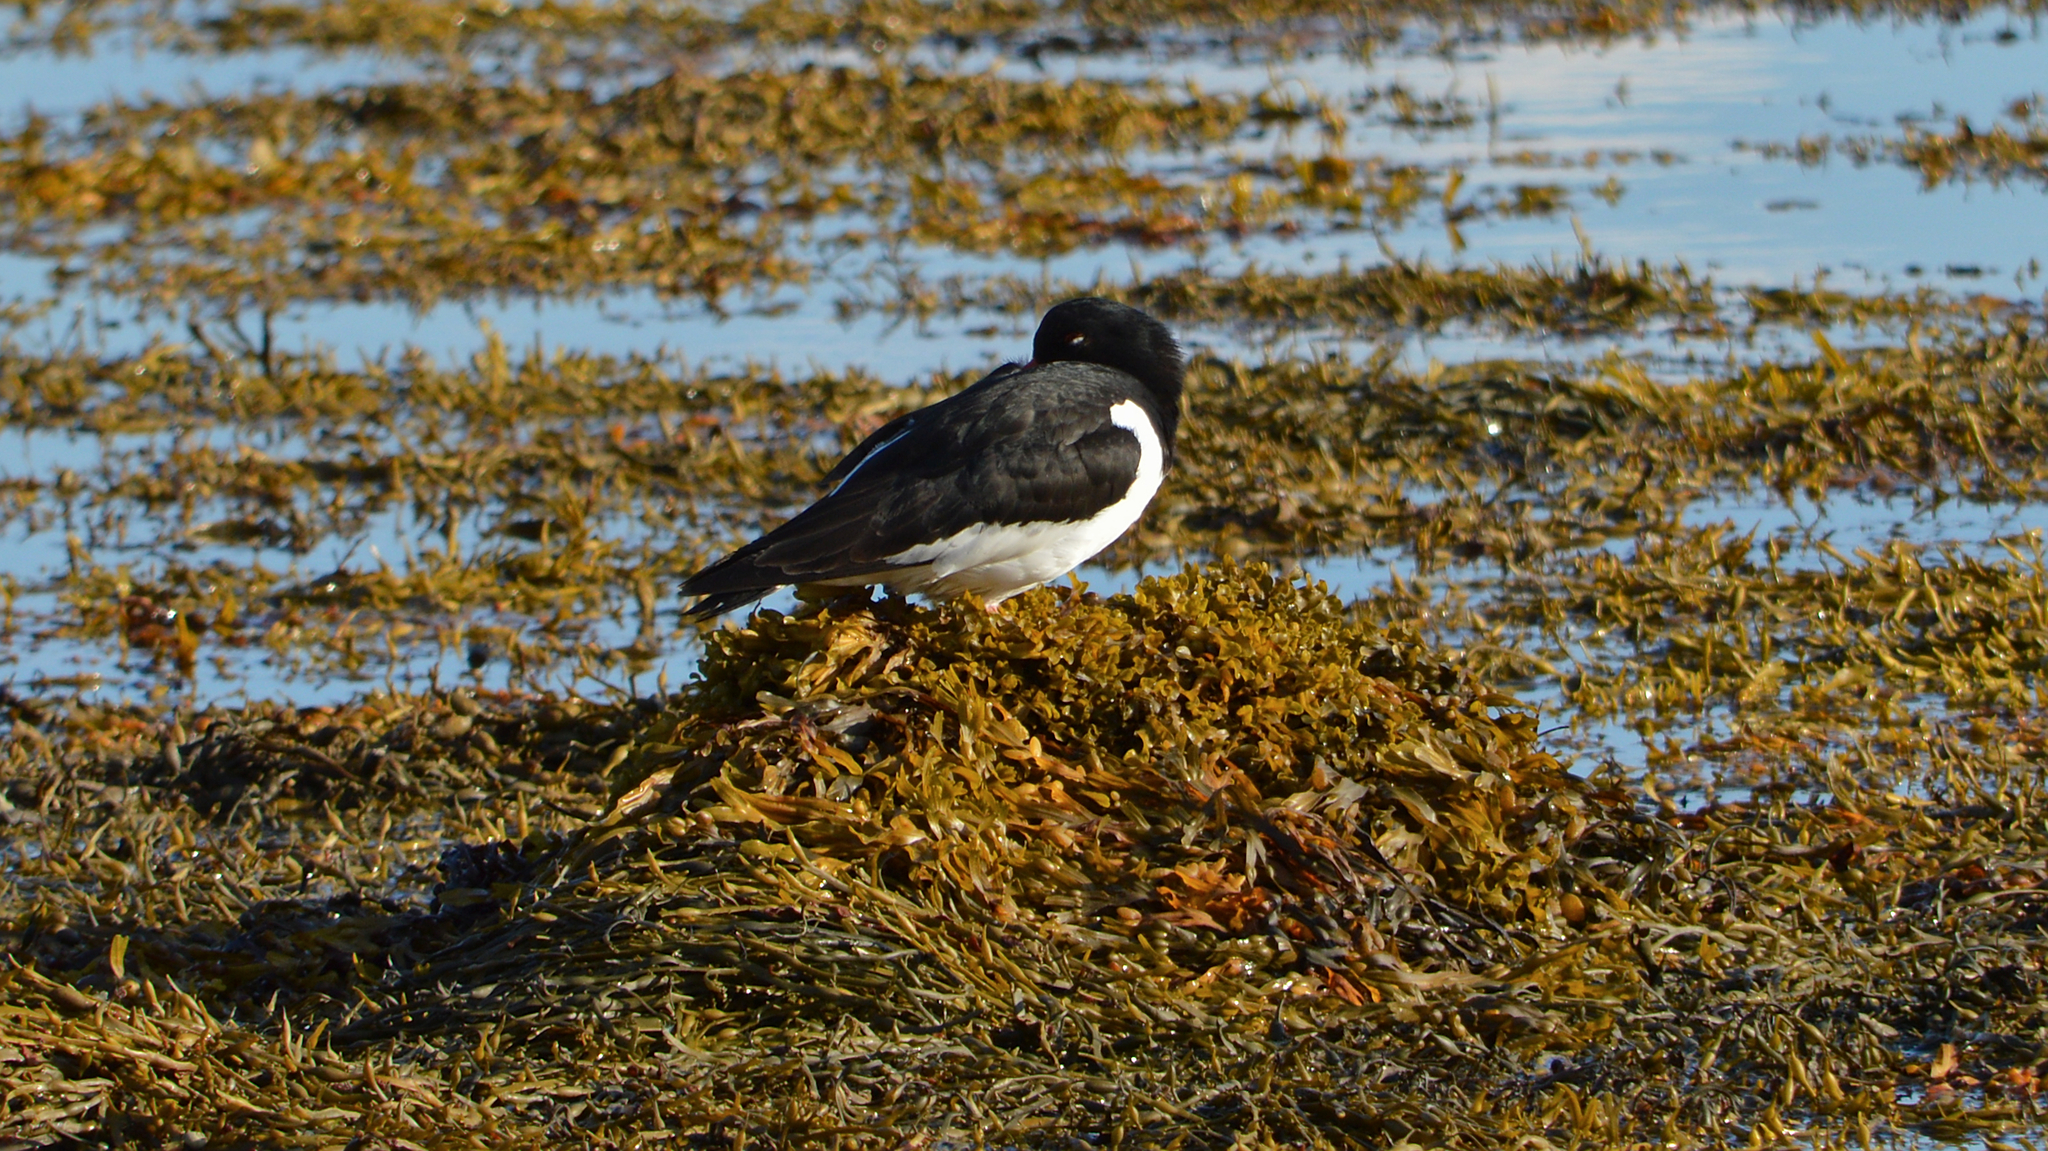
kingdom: Animalia
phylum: Chordata
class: Aves
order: Charadriiformes
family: Haematopodidae
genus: Haematopus
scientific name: Haematopus ostralegus
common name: Eurasian oystercatcher
